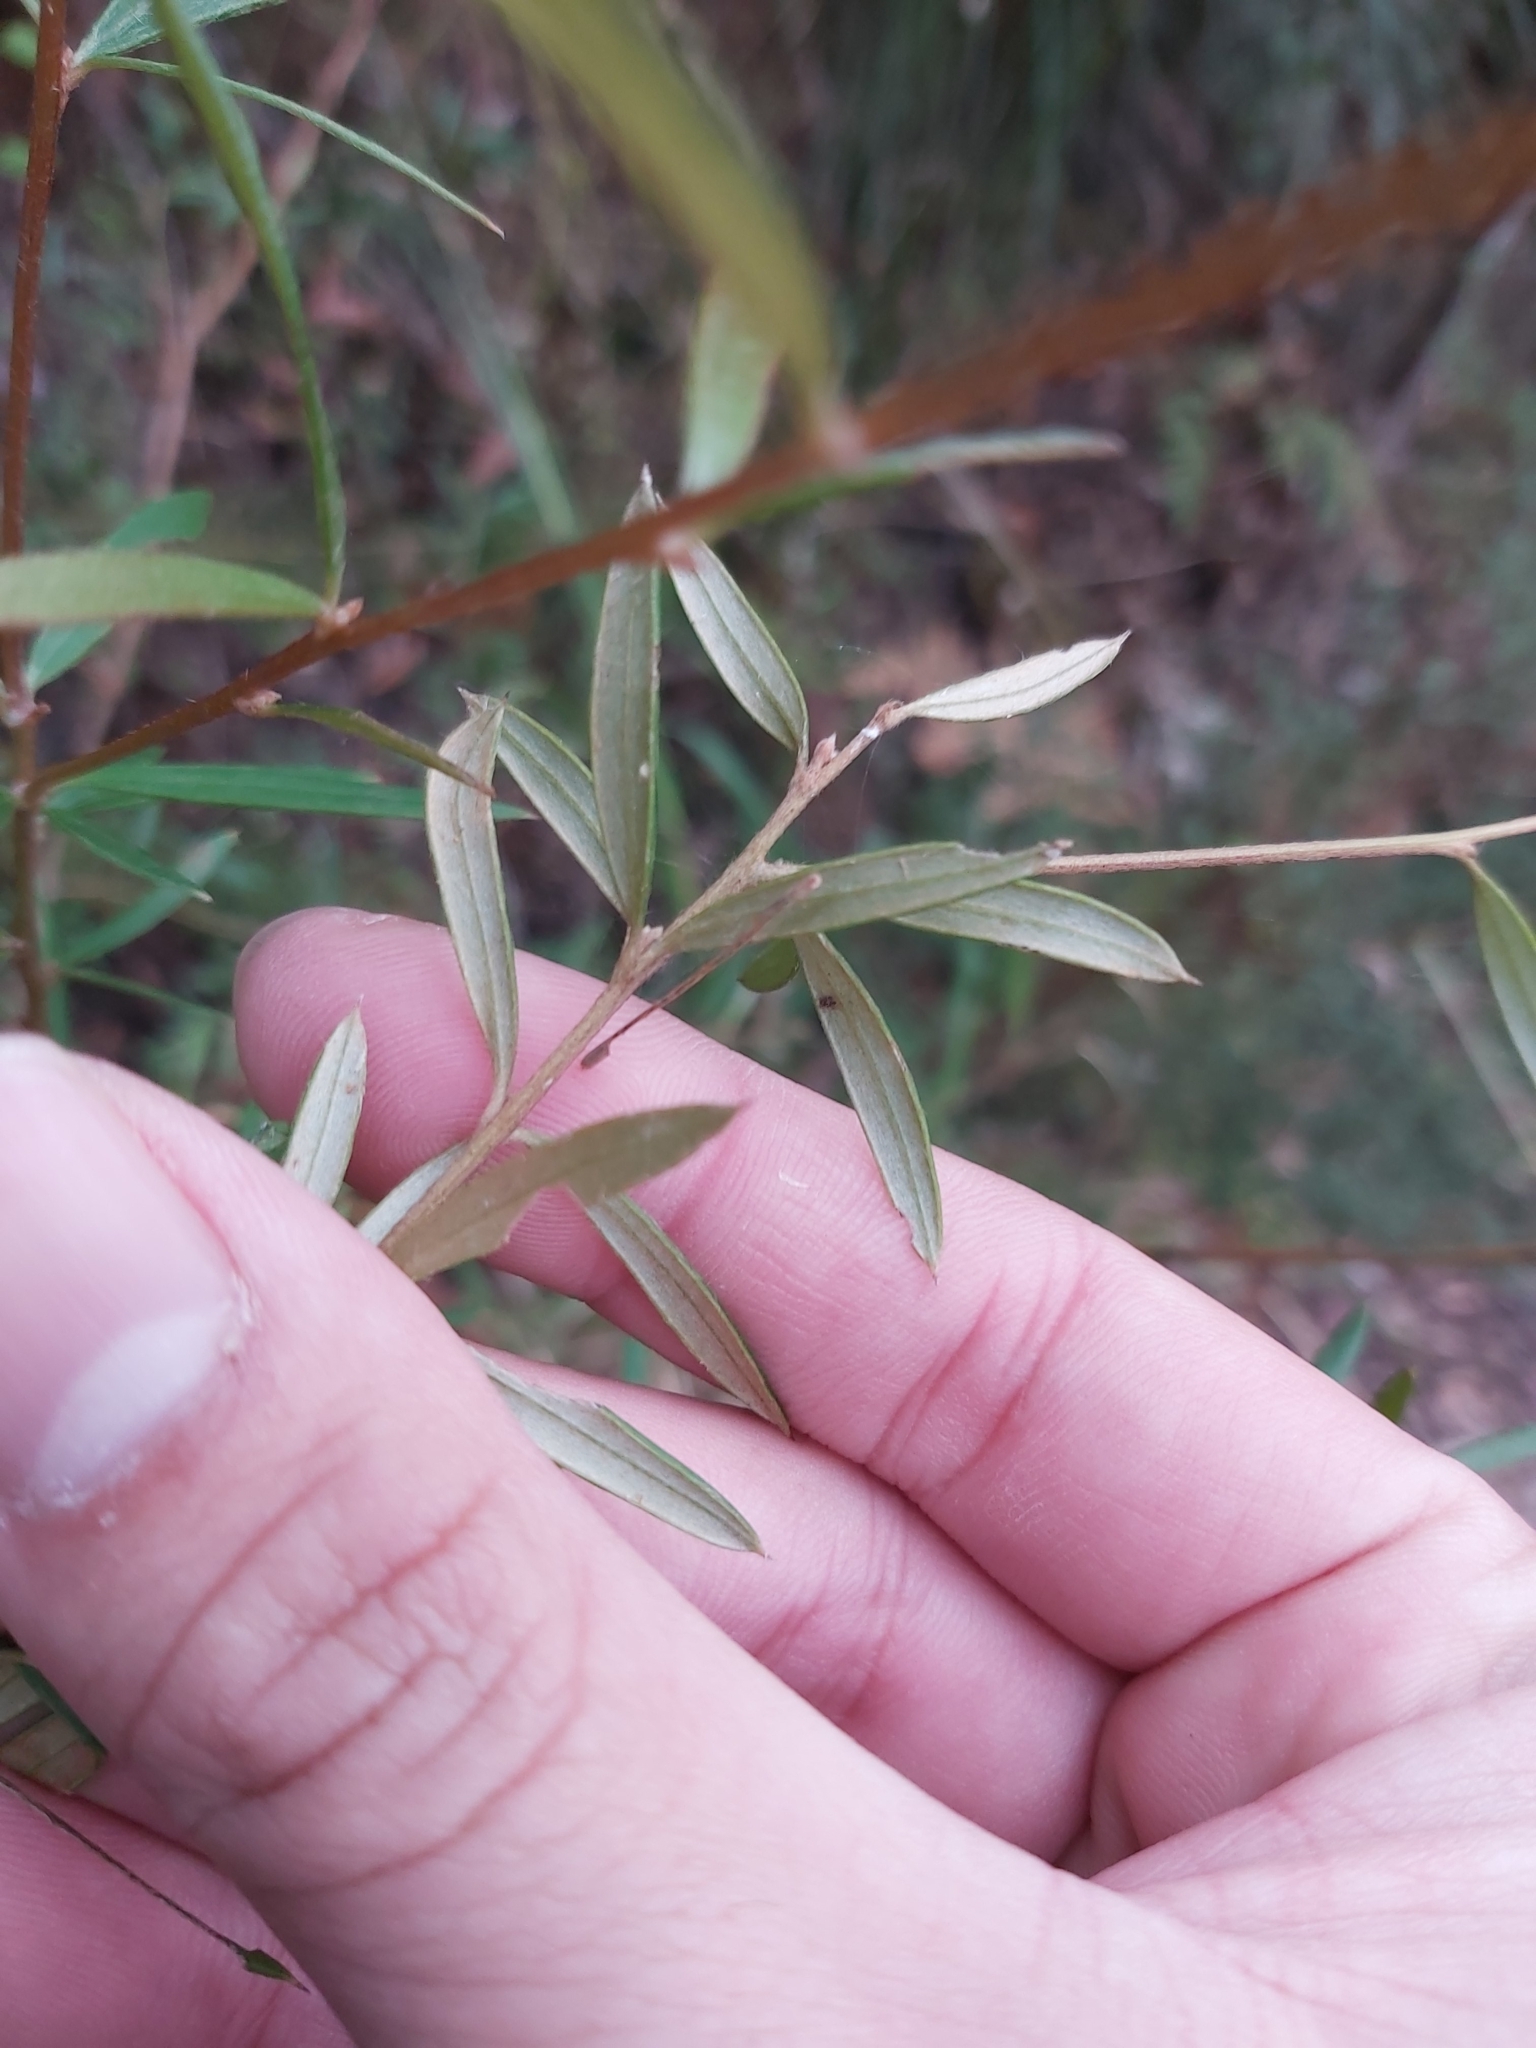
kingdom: Plantae
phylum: Tracheophyta
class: Magnoliopsida
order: Proteales
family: Proteaceae
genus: Grevillea
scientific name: Grevillea sericea
